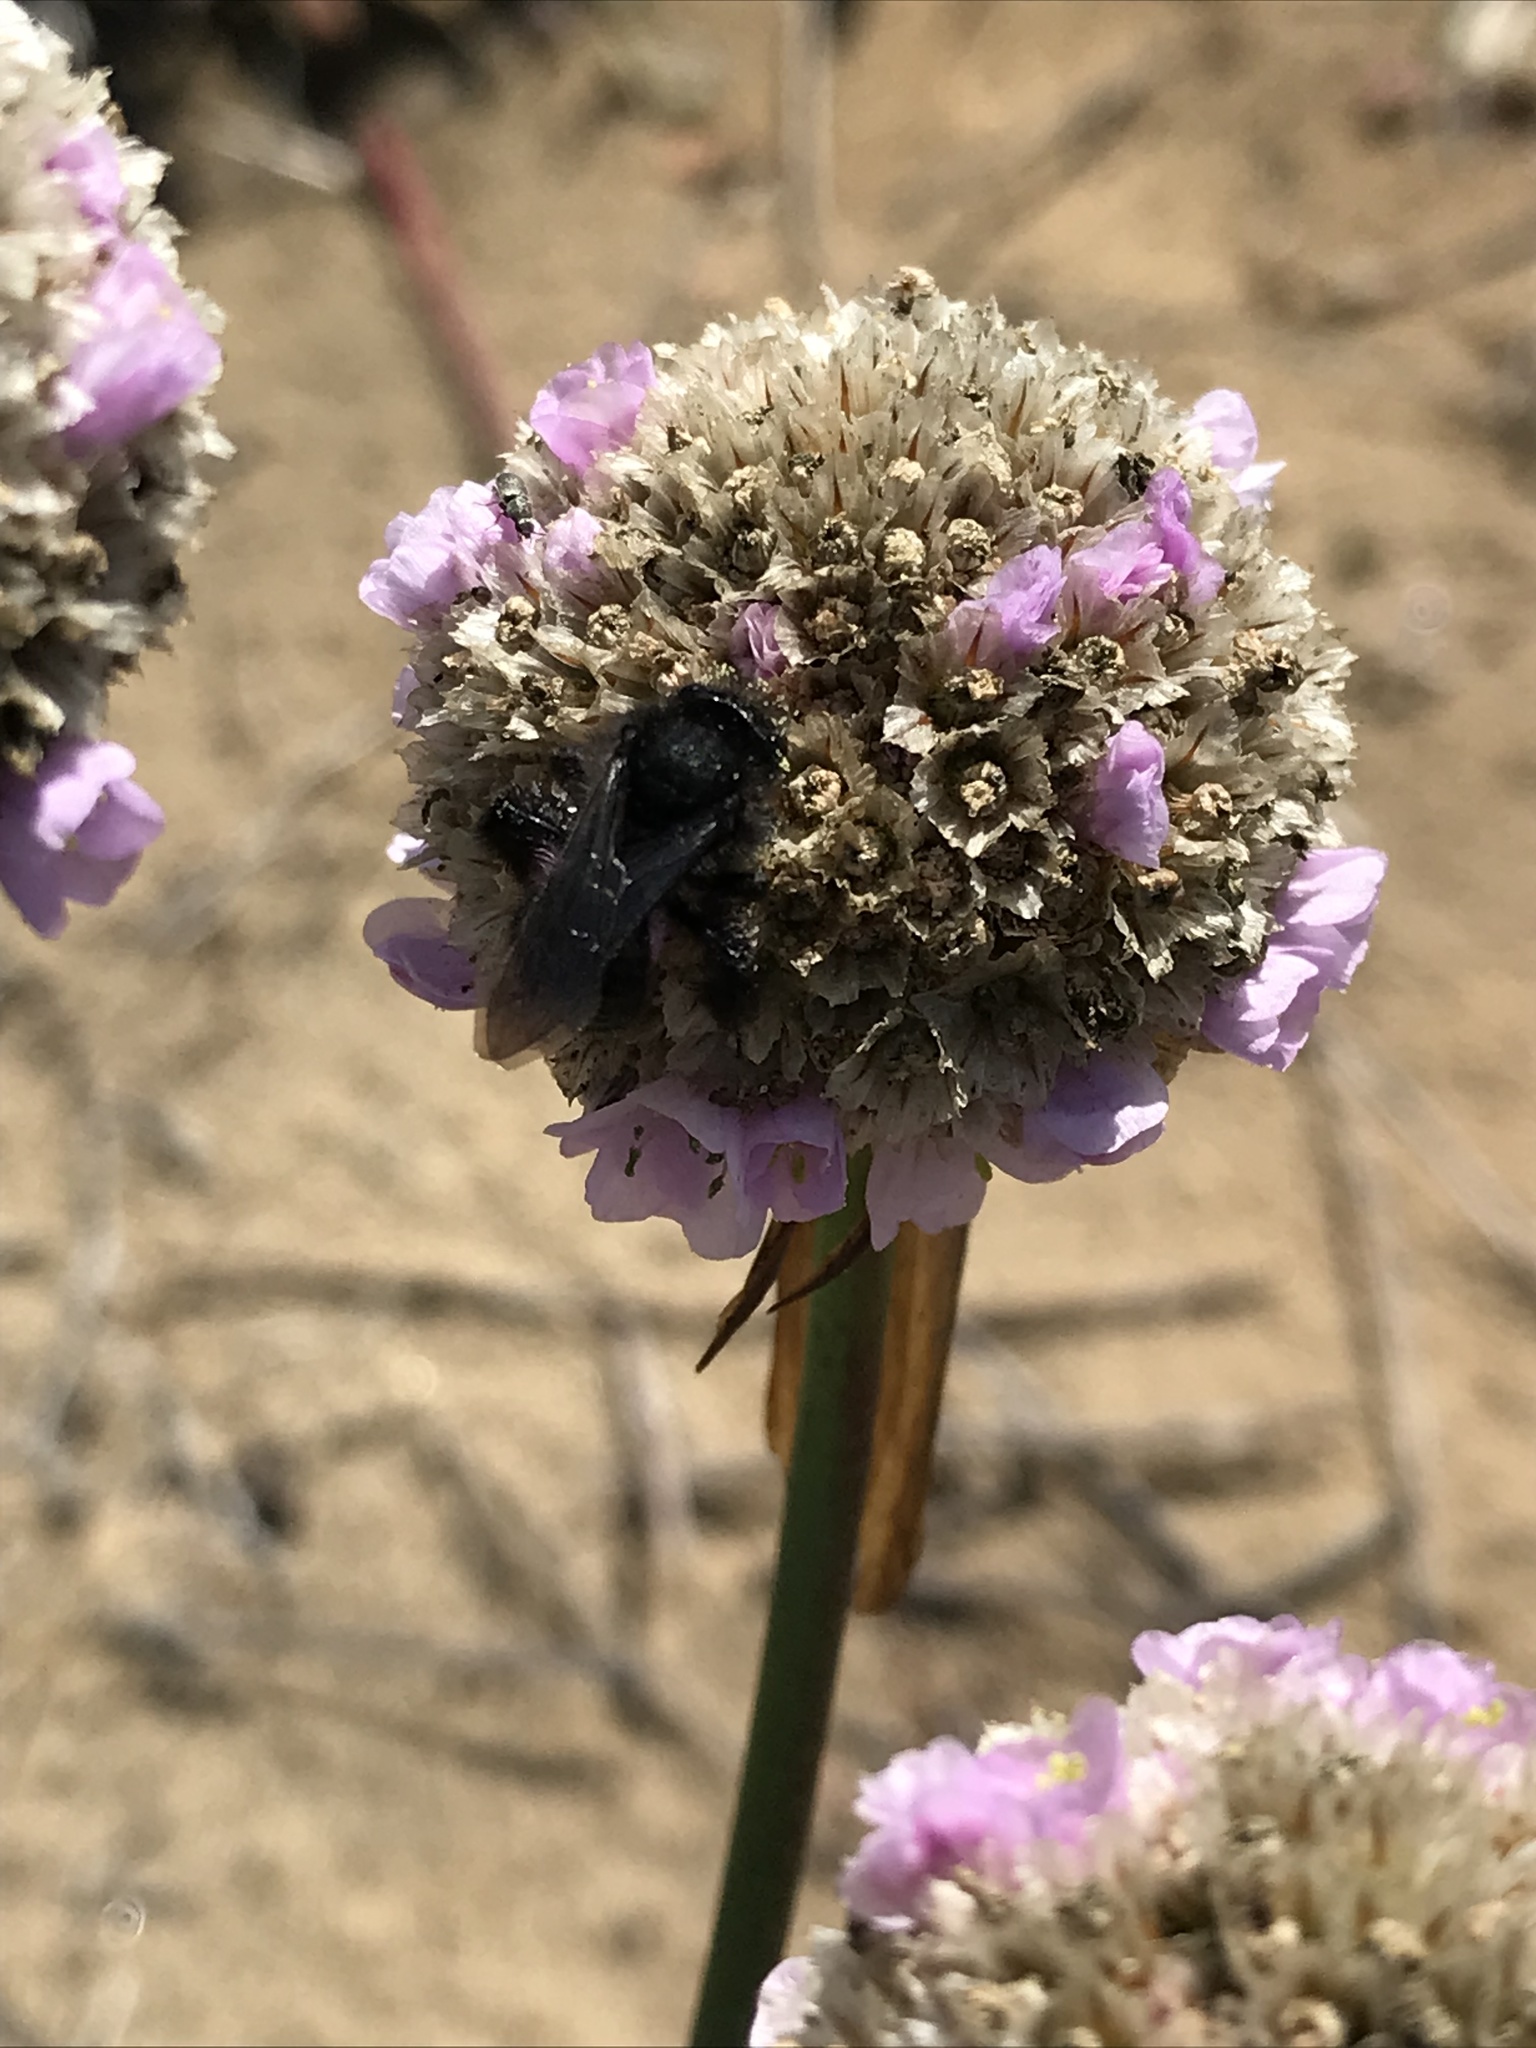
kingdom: Plantae
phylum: Tracheophyta
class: Magnoliopsida
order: Caryophyllales
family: Plumbaginaceae
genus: Armeria
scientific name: Armeria maritima
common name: Thrift
